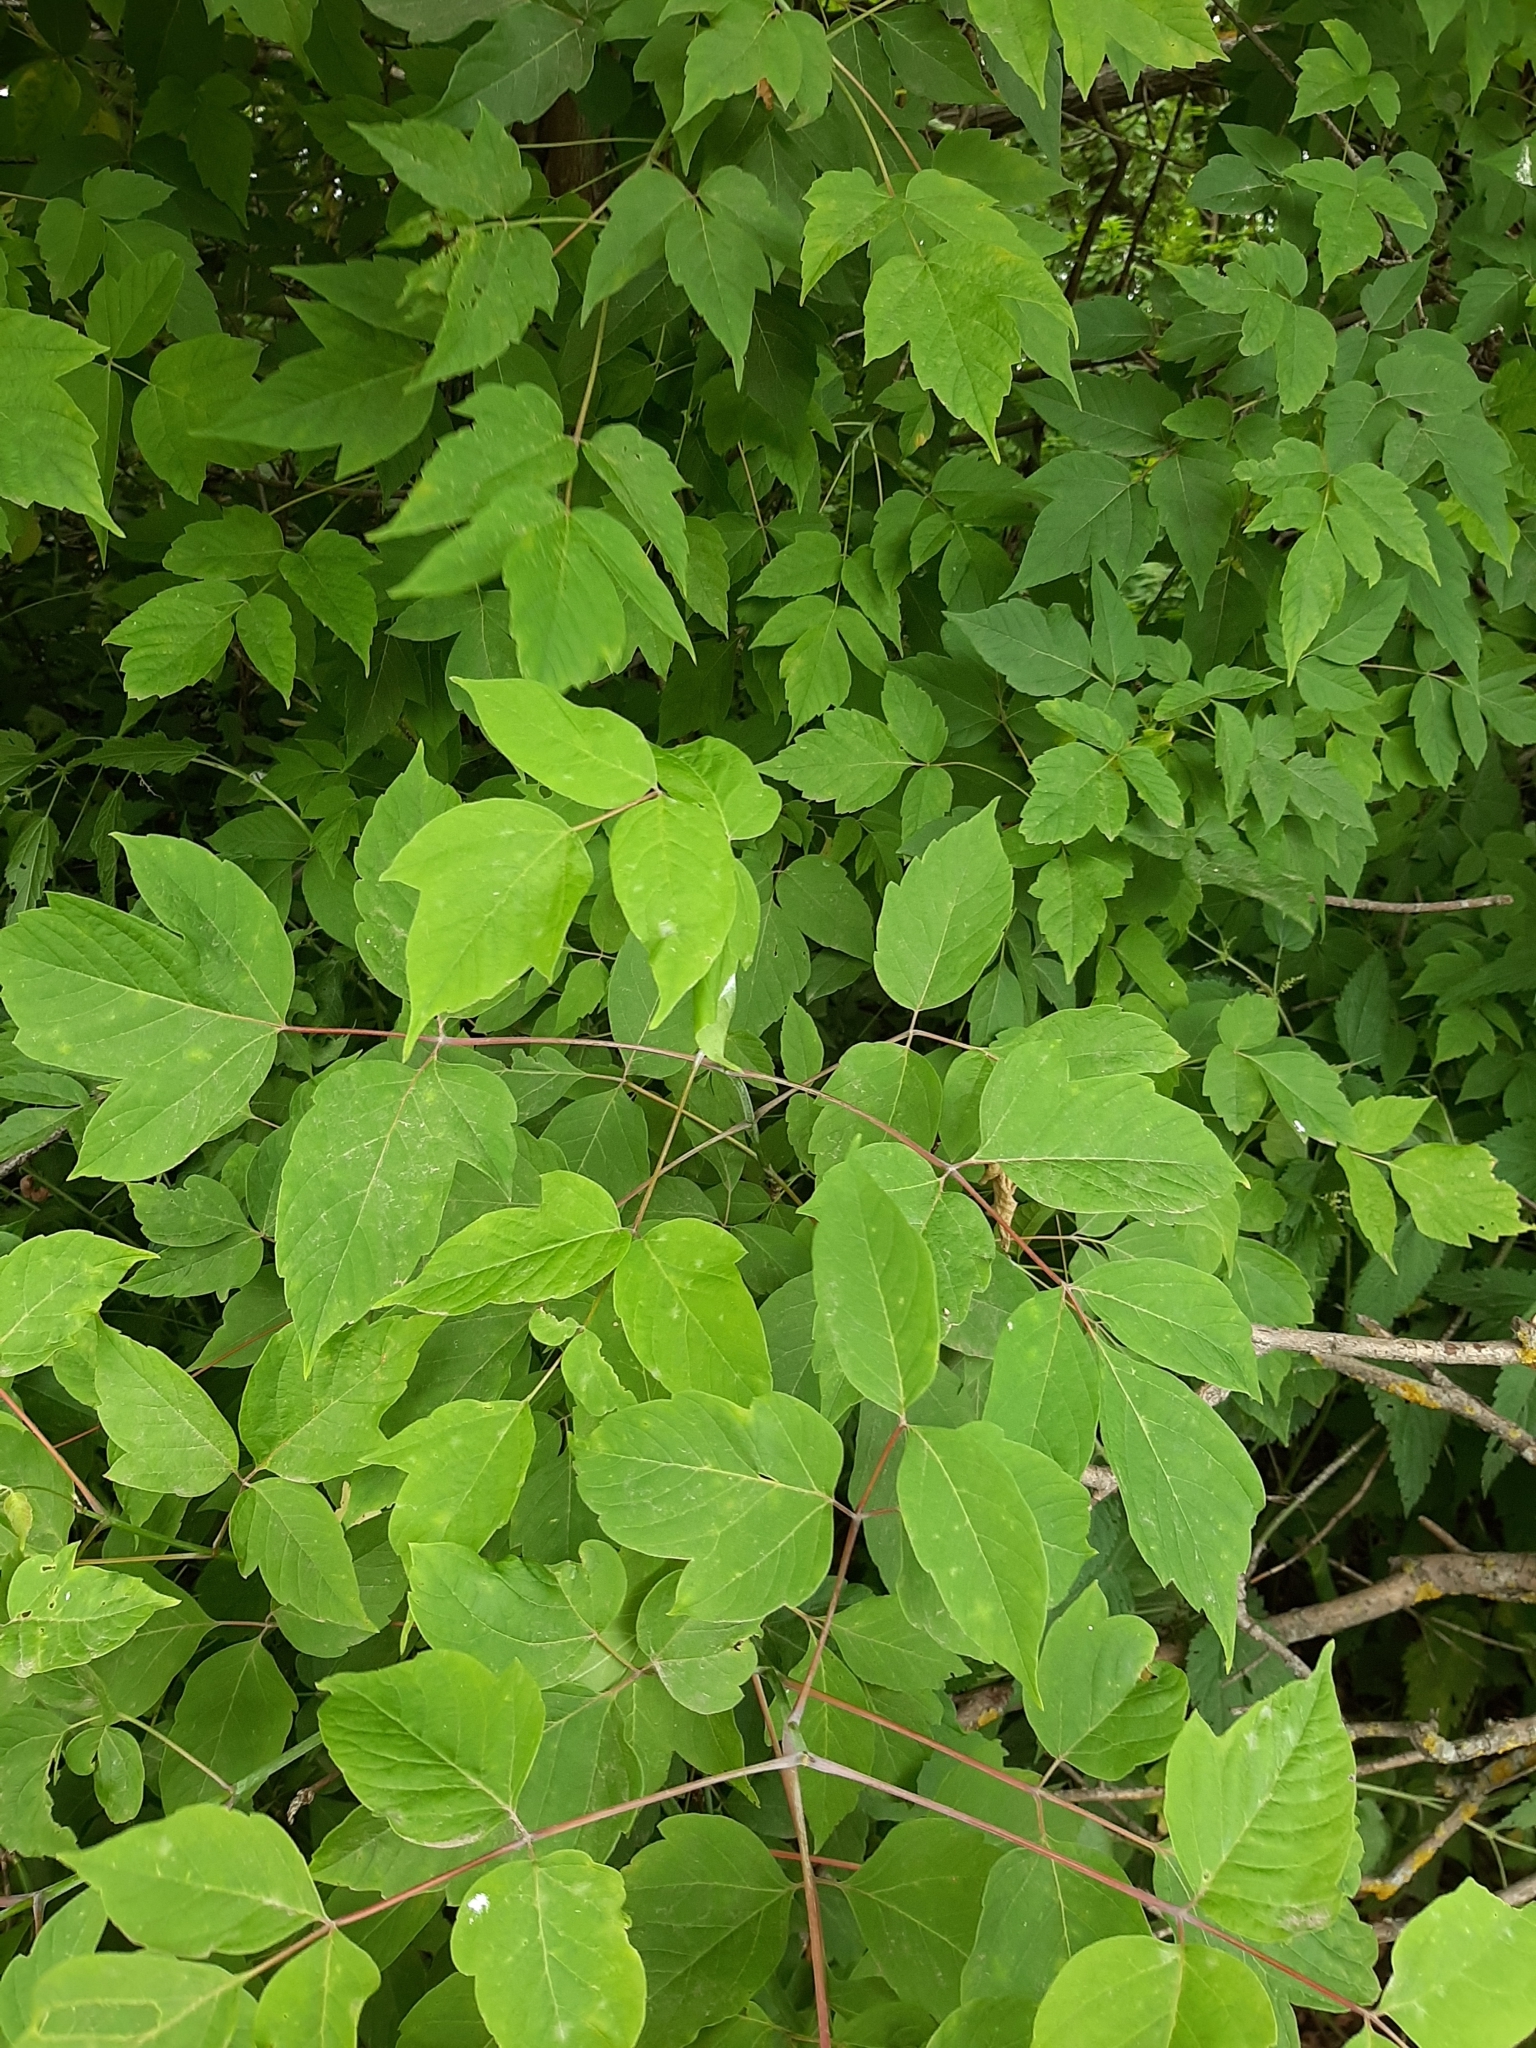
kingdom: Plantae
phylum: Tracheophyta
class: Magnoliopsida
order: Sapindales
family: Sapindaceae
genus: Acer
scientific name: Acer negundo
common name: Ashleaf maple
